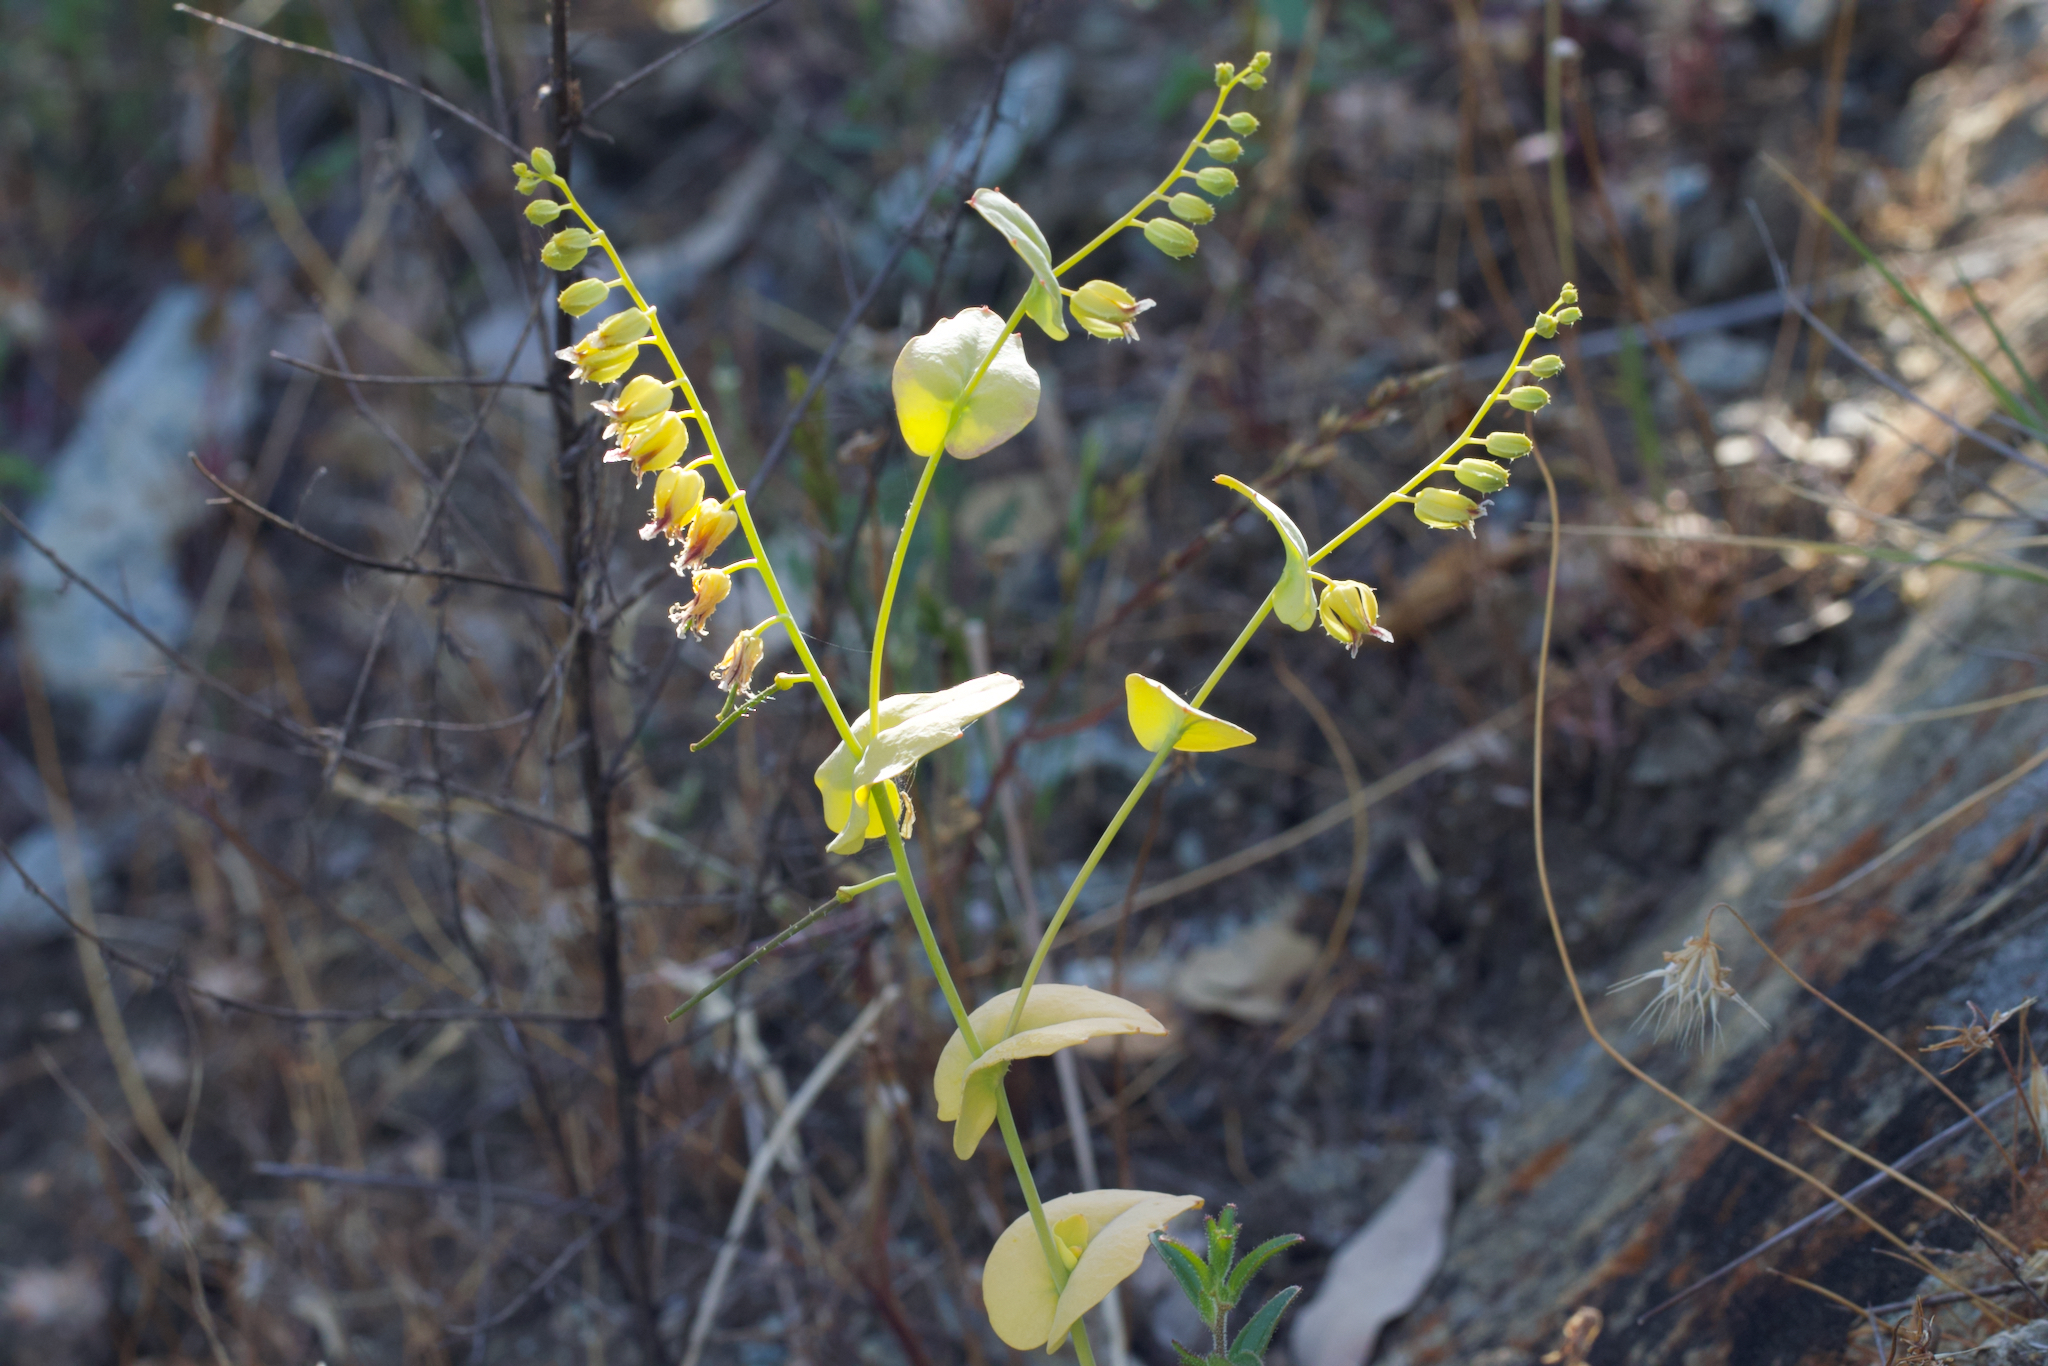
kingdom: Plantae
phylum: Tracheophyta
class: Magnoliopsida
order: Brassicales
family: Brassicaceae
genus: Streptanthus
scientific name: Streptanthus anomalus
